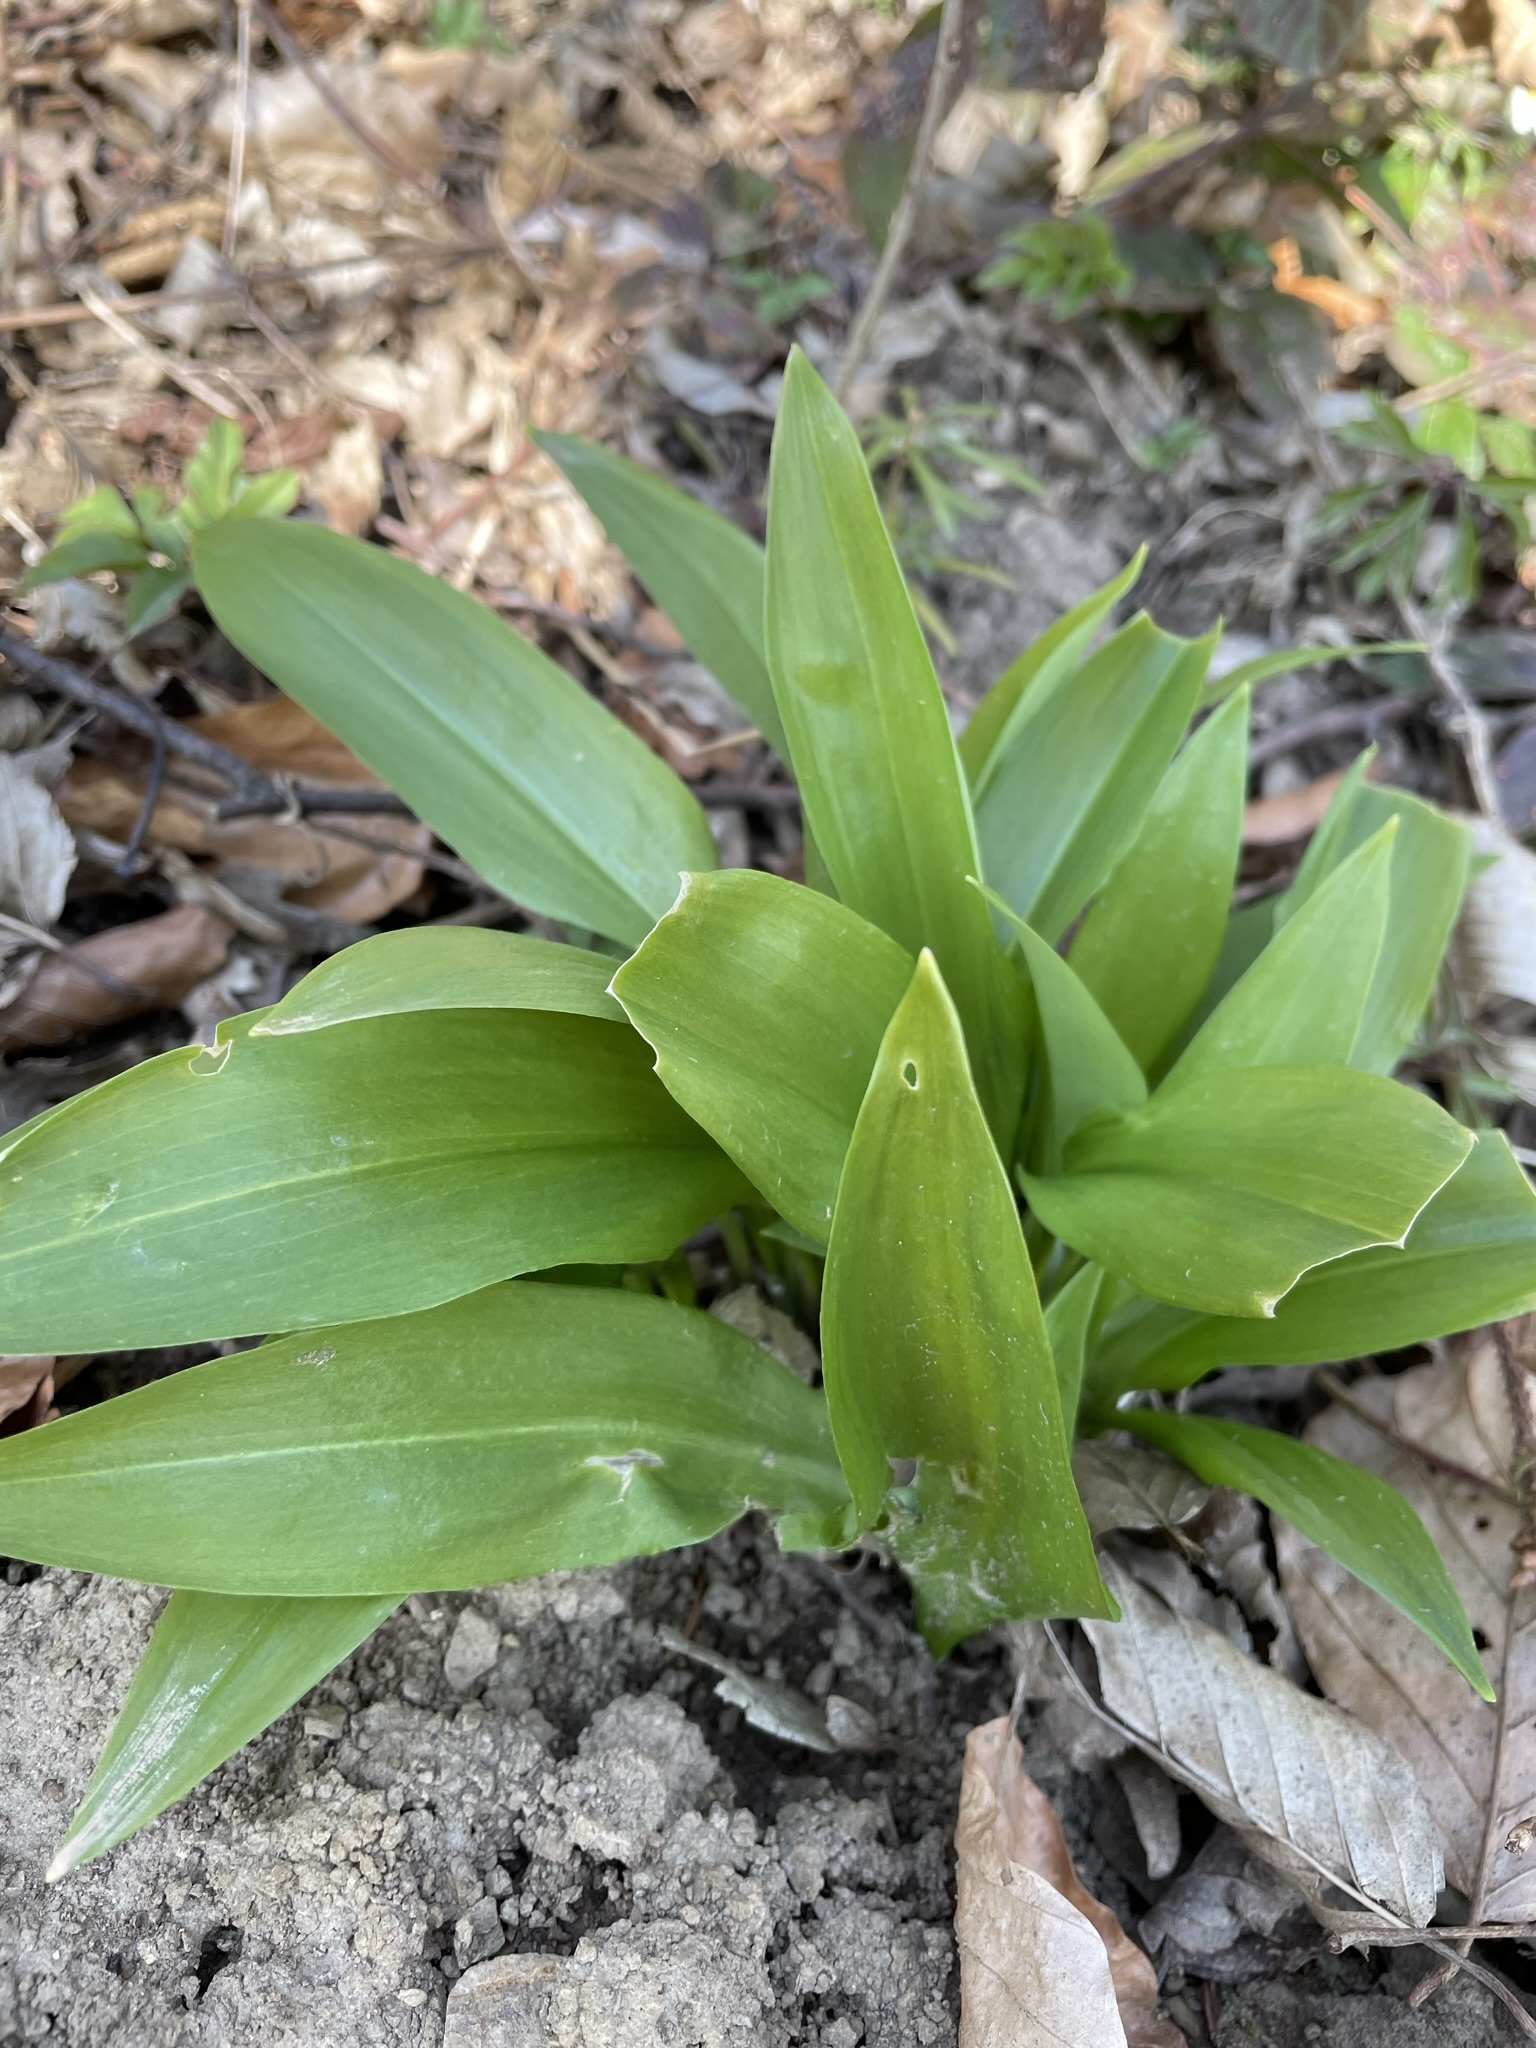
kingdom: Plantae
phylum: Tracheophyta
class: Liliopsida
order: Asparagales
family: Amaryllidaceae
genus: Allium
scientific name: Allium ursinum
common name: Ramsons
